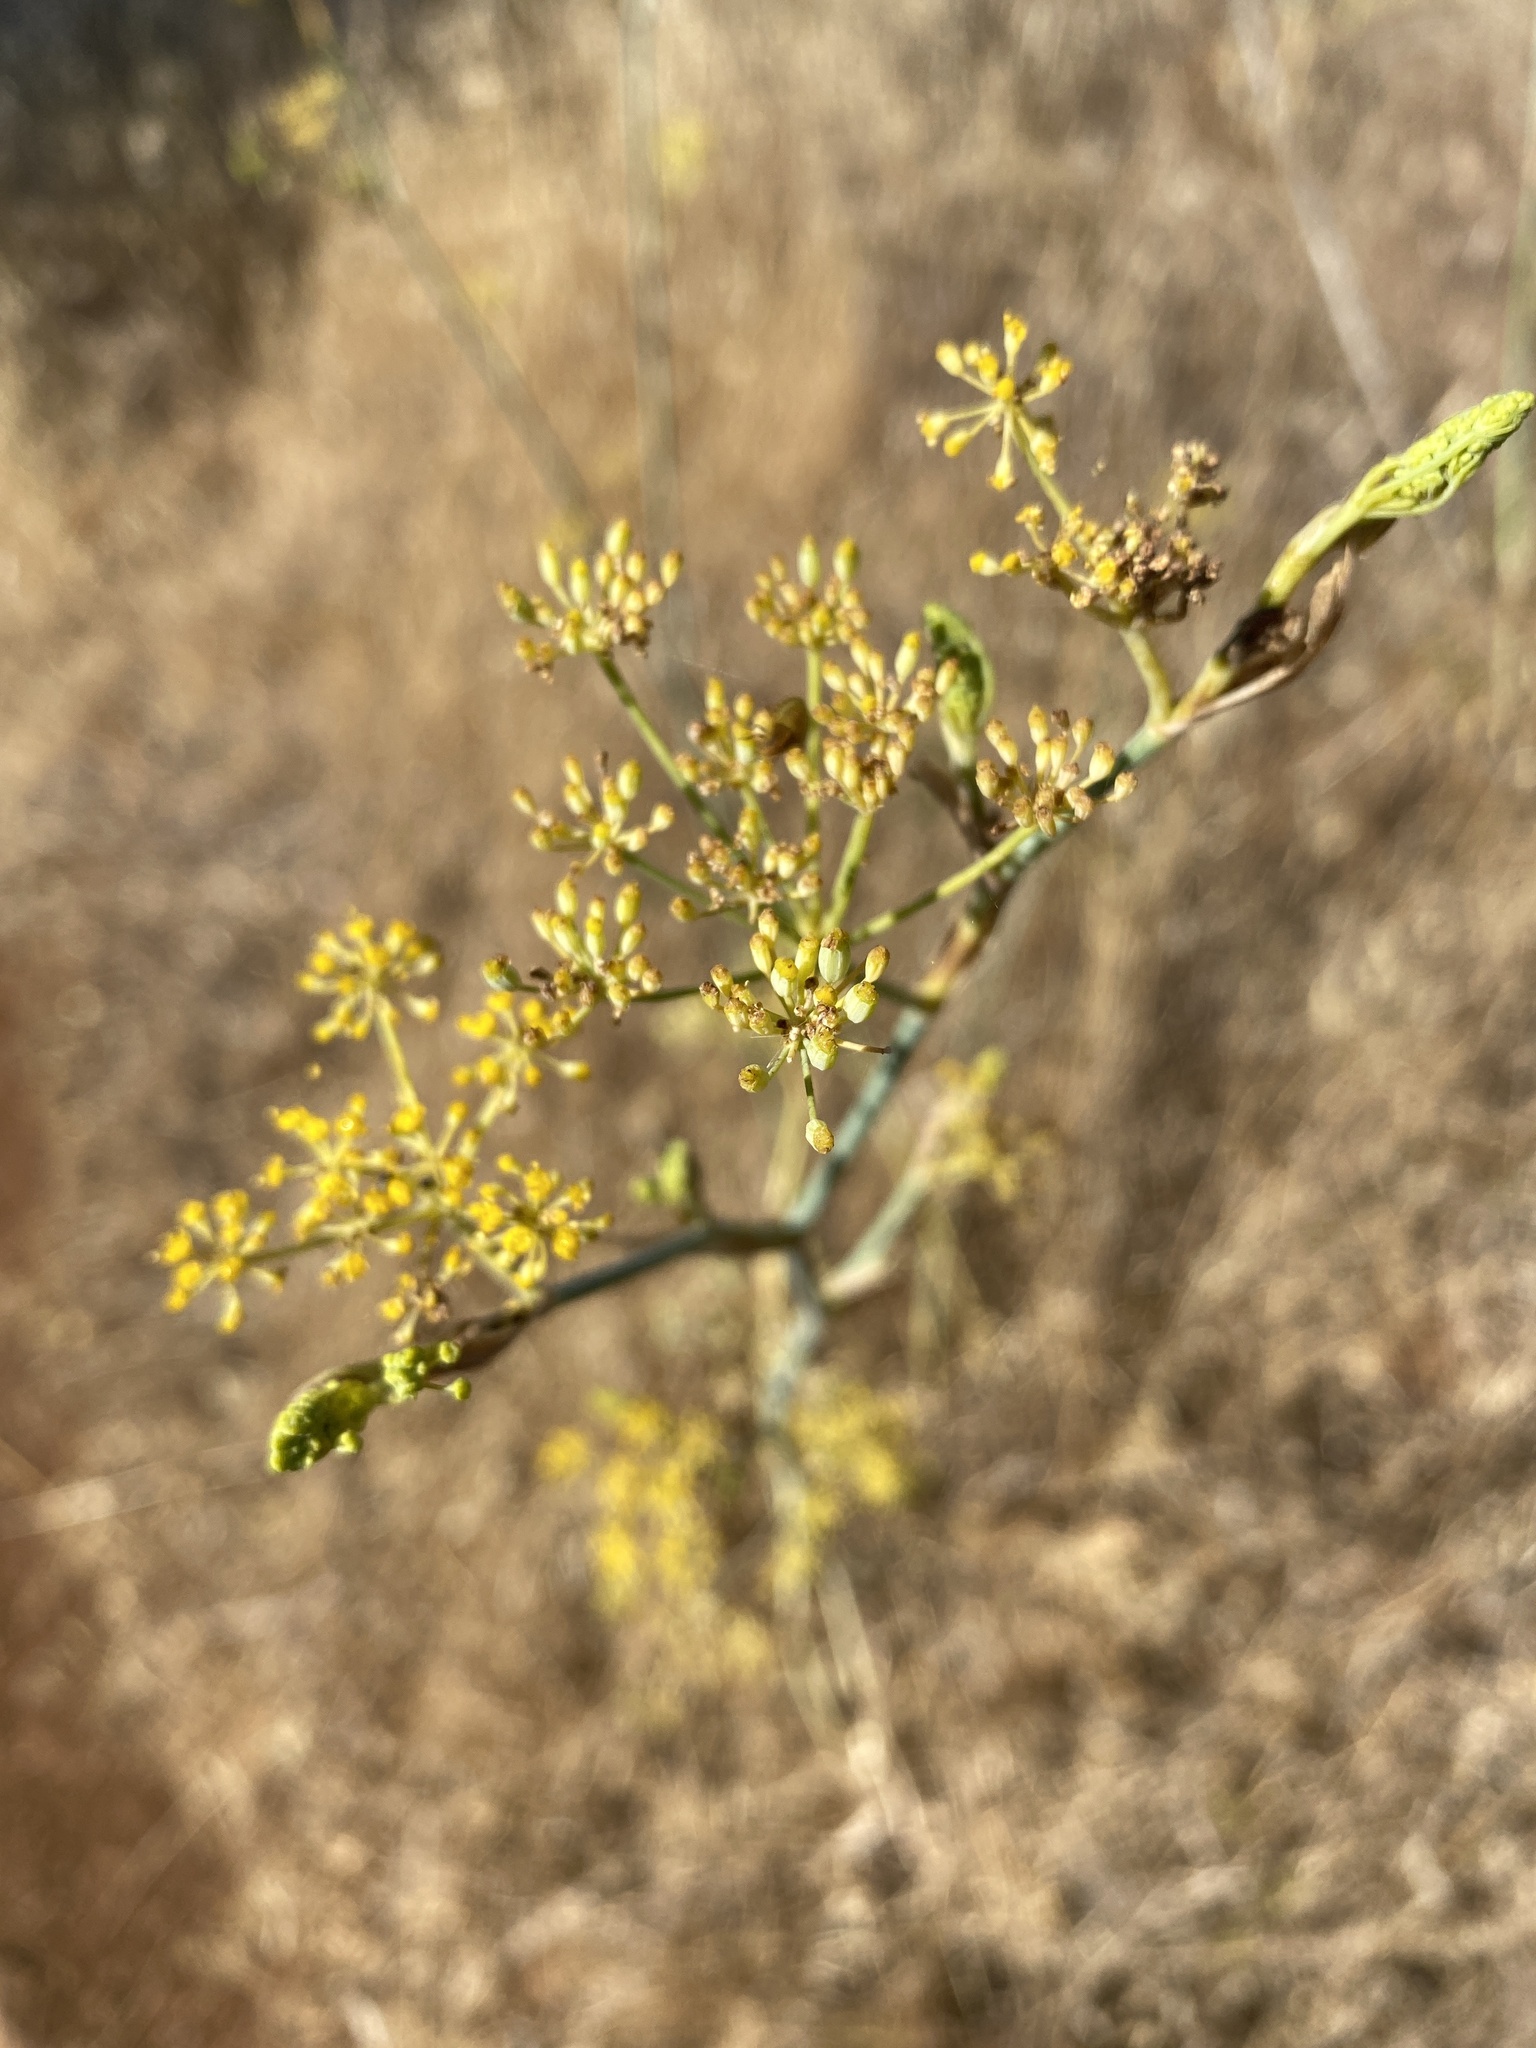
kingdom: Plantae
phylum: Tracheophyta
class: Magnoliopsida
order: Apiales
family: Apiaceae
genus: Foeniculum
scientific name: Foeniculum vulgare
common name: Fennel
